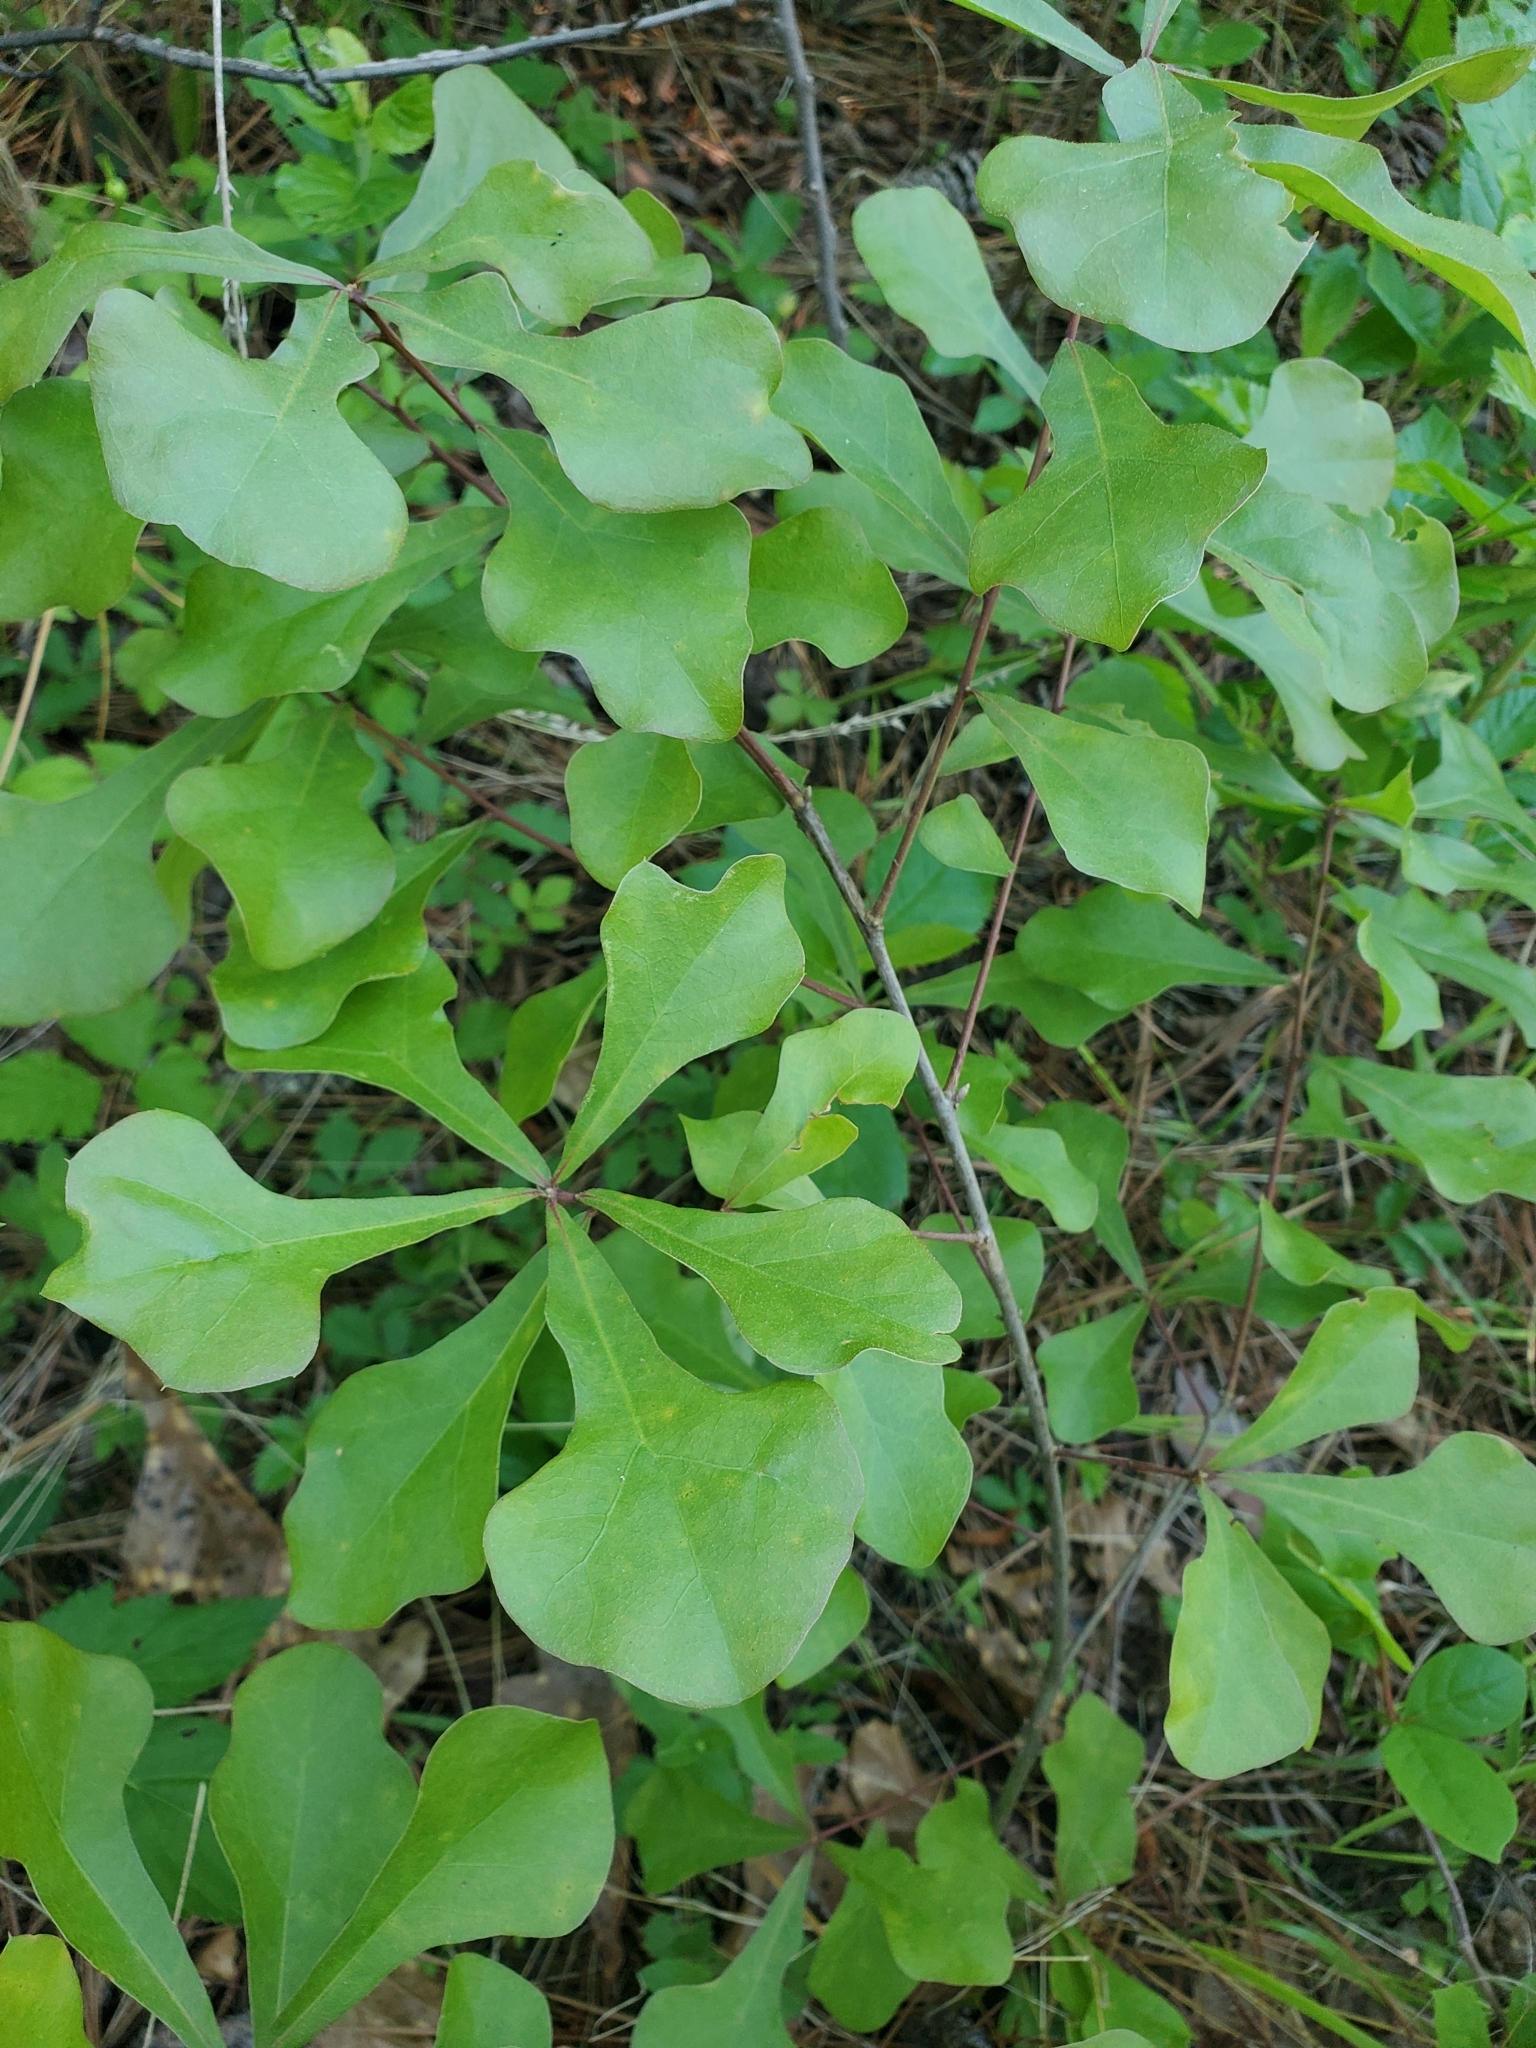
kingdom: Plantae
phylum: Tracheophyta
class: Magnoliopsida
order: Fagales
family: Fagaceae
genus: Quercus
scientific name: Quercus nigra
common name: Water oak
